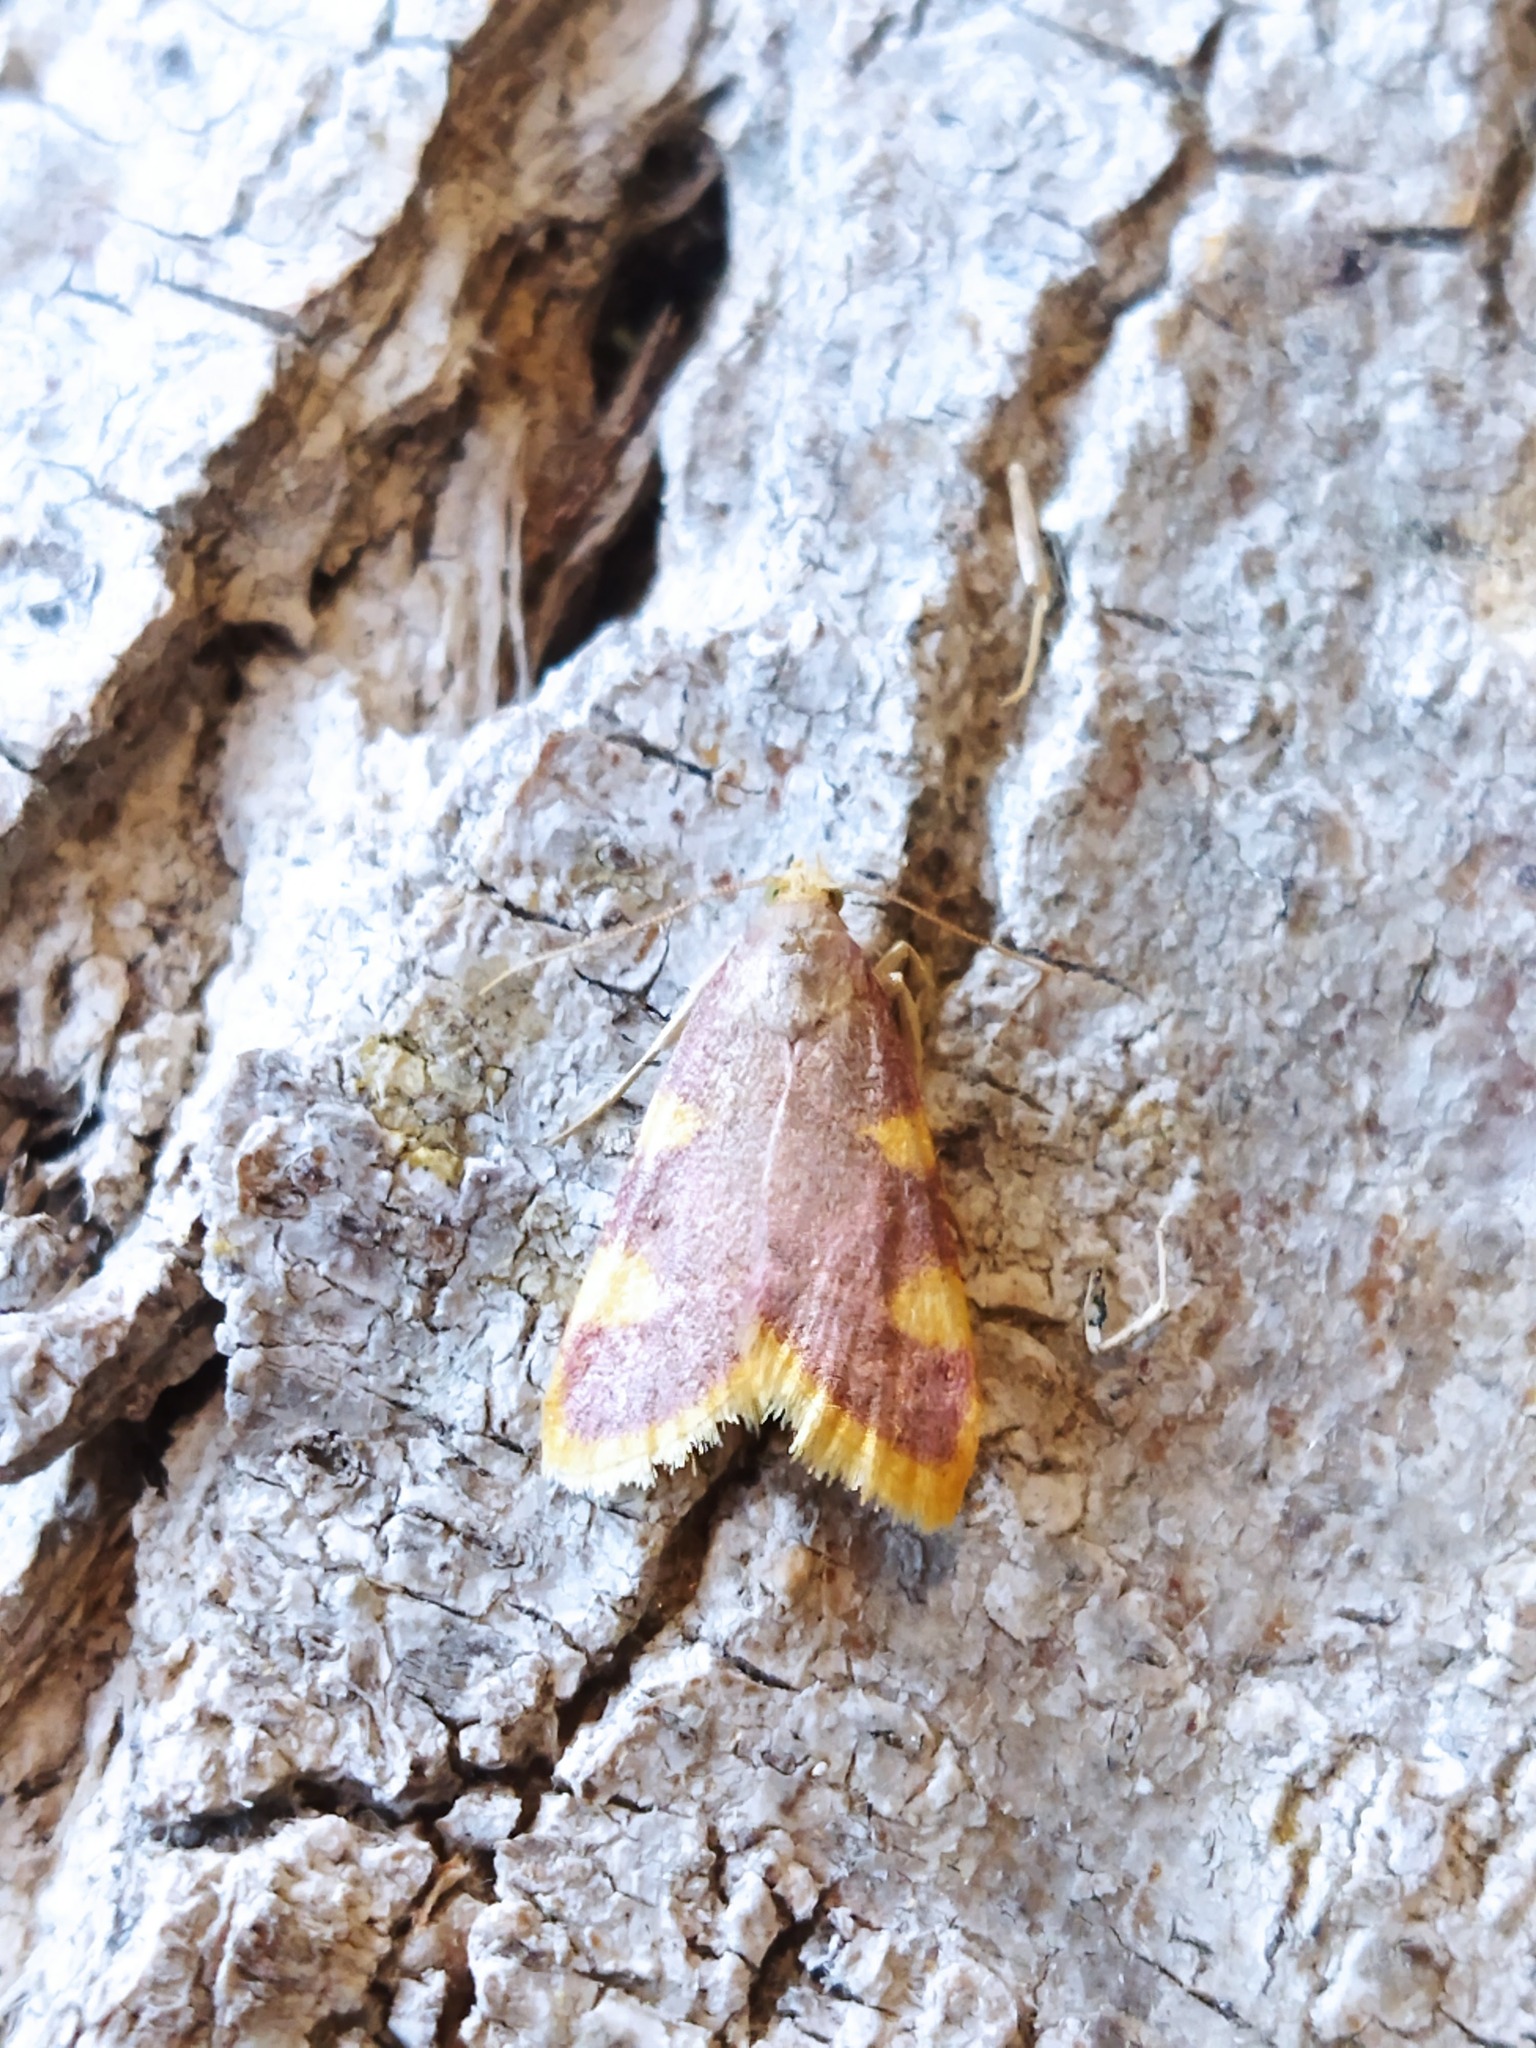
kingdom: Animalia
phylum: Arthropoda
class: Insecta
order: Lepidoptera
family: Pyralidae
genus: Hypsopygia
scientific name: Hypsopygia costalis
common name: Gold triangle
